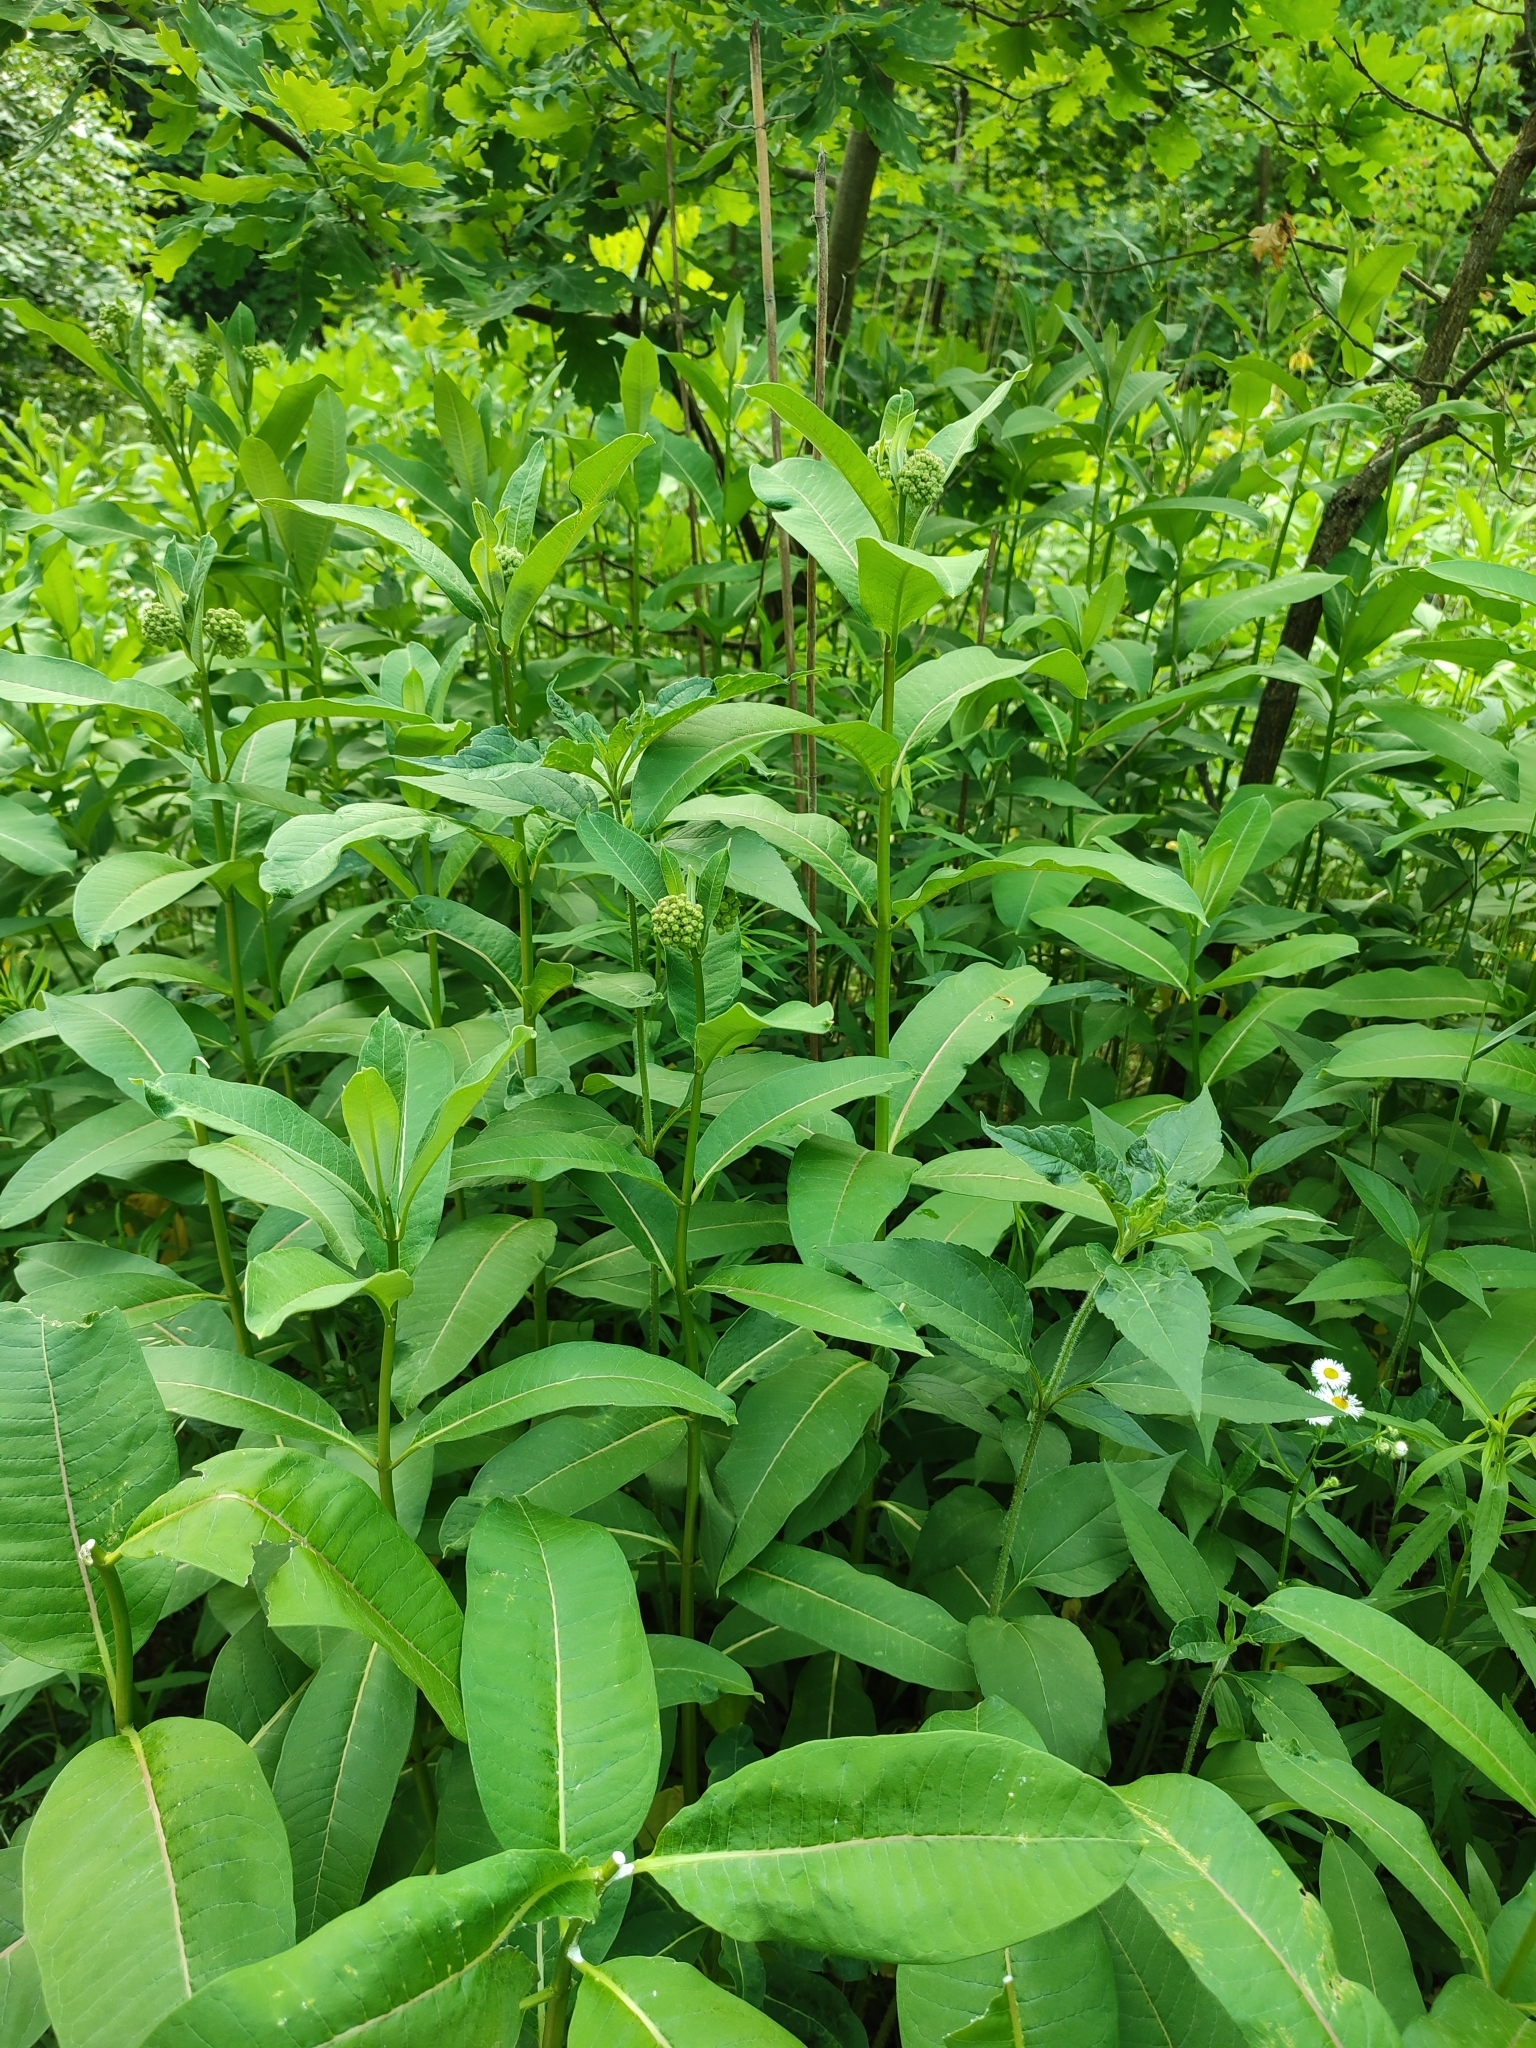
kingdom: Plantae
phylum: Tracheophyta
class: Magnoliopsida
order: Gentianales
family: Apocynaceae
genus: Asclepias
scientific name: Asclepias syriaca
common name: Common milkweed
